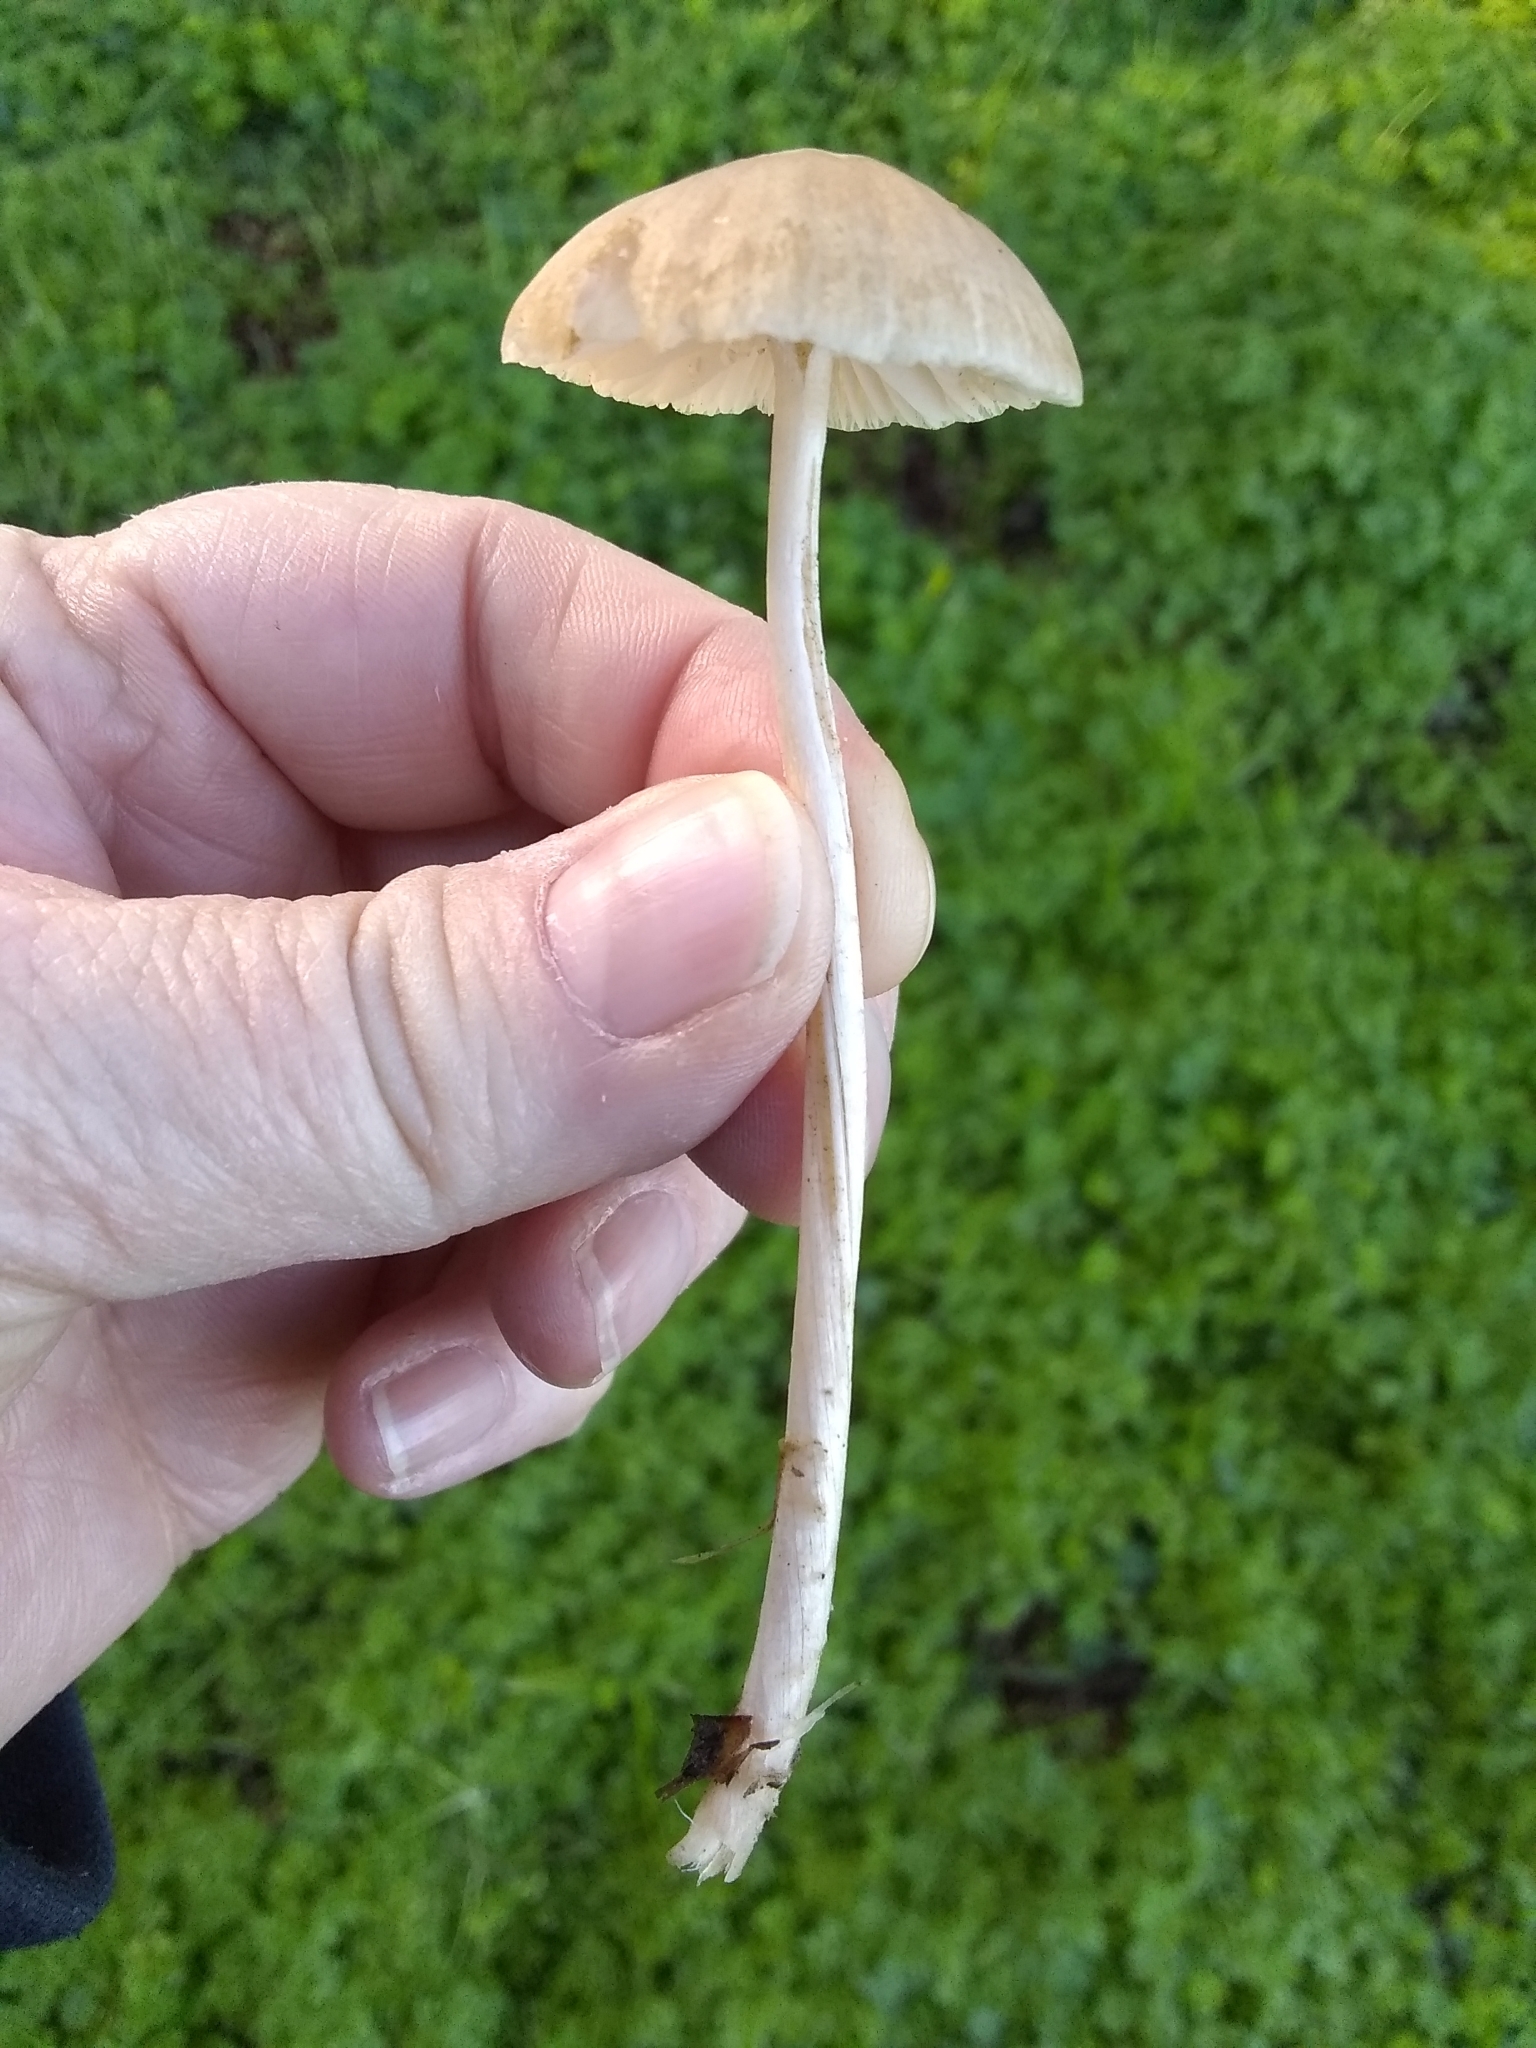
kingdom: Fungi
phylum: Basidiomycota
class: Agaricomycetes
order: Agaricales
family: Psathyrellaceae
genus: Candolleomyces
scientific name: Candolleomyces candolleanus
